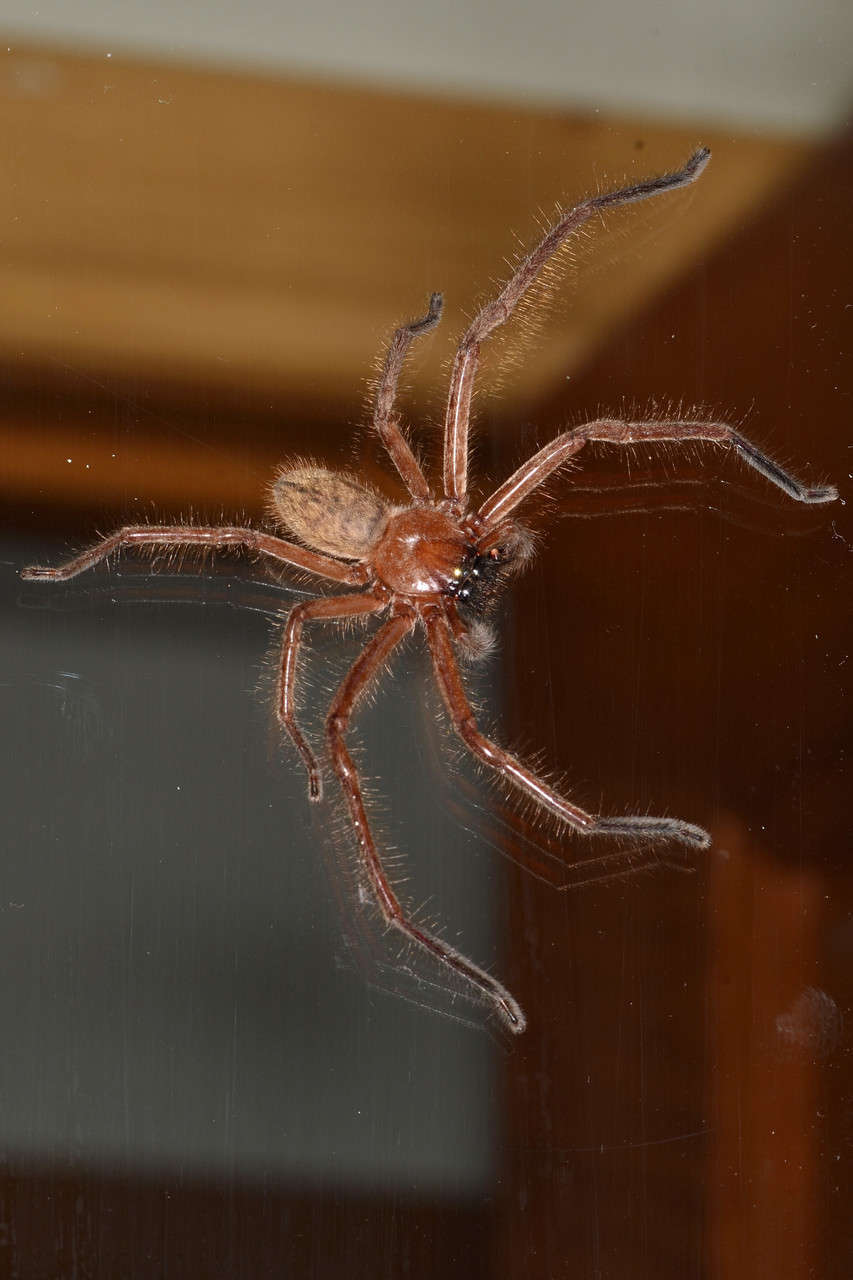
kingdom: Animalia
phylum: Arthropoda
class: Arachnida
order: Araneae
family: Sparassidae
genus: Delena
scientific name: Delena cancerides
